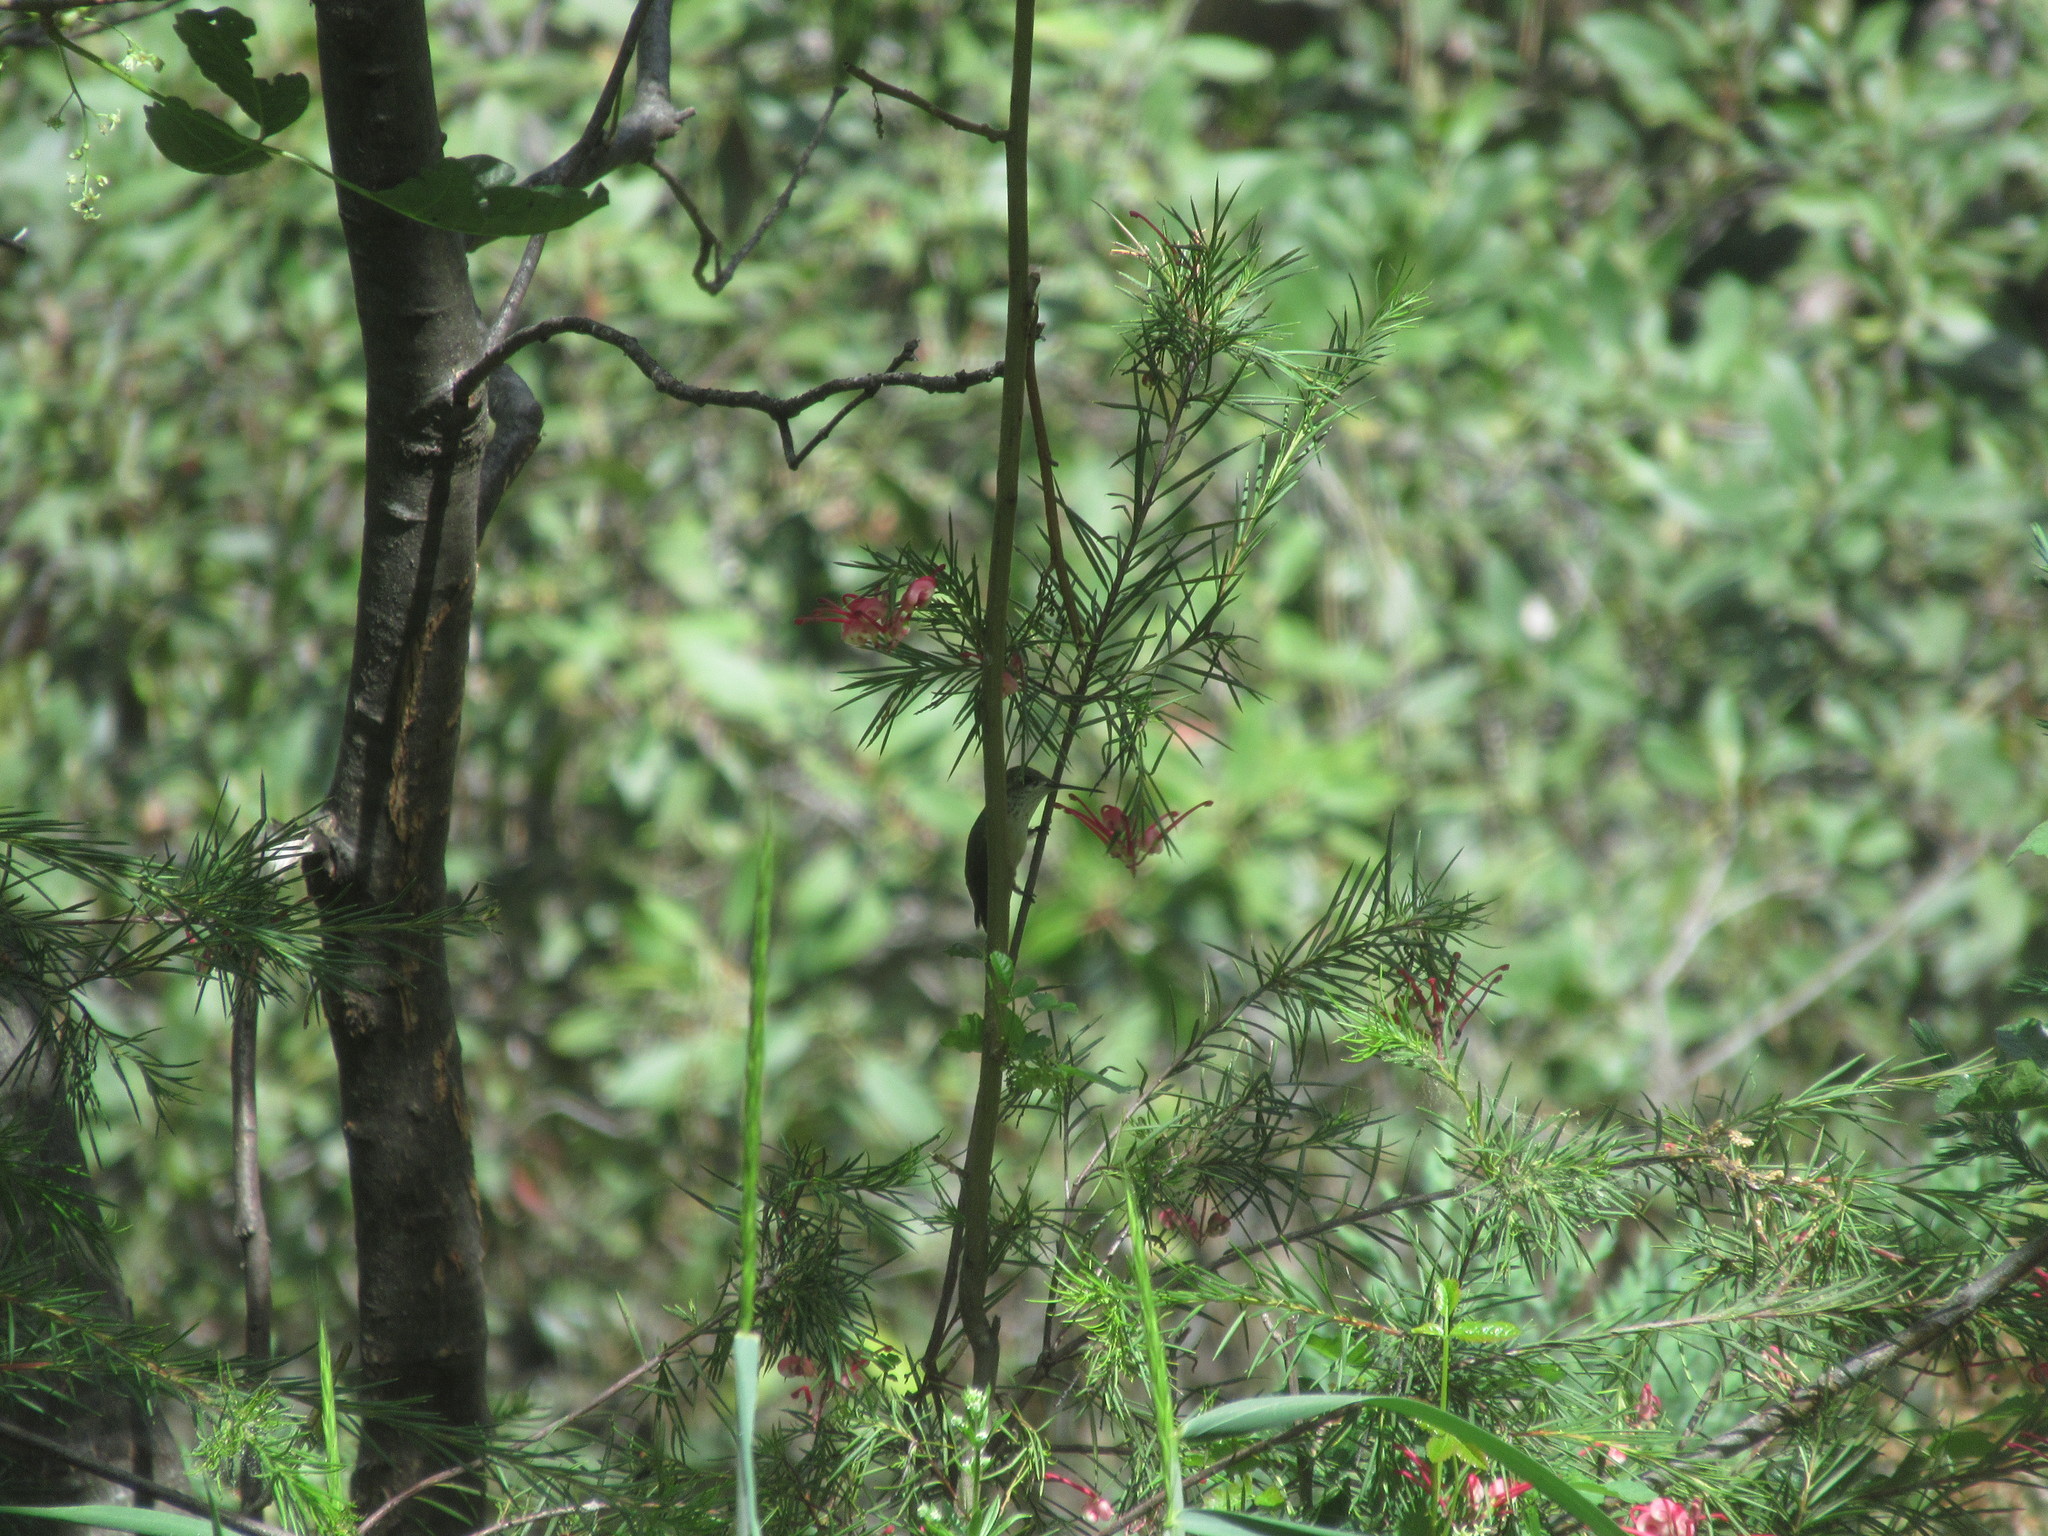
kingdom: Animalia
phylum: Chordata
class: Aves
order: Apodiformes
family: Trochilidae
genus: Archilochus
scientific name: Archilochus alexandri
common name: Black-chinned hummingbird
